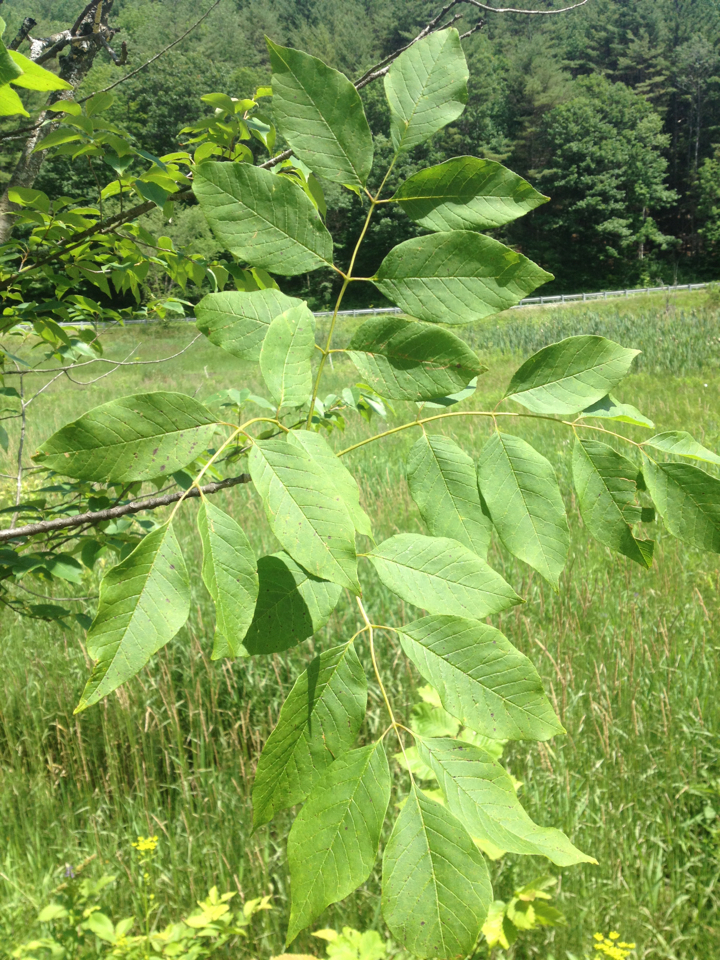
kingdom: Plantae
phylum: Tracheophyta
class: Magnoliopsida
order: Lamiales
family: Oleaceae
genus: Fraxinus
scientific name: Fraxinus americana
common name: White ash
